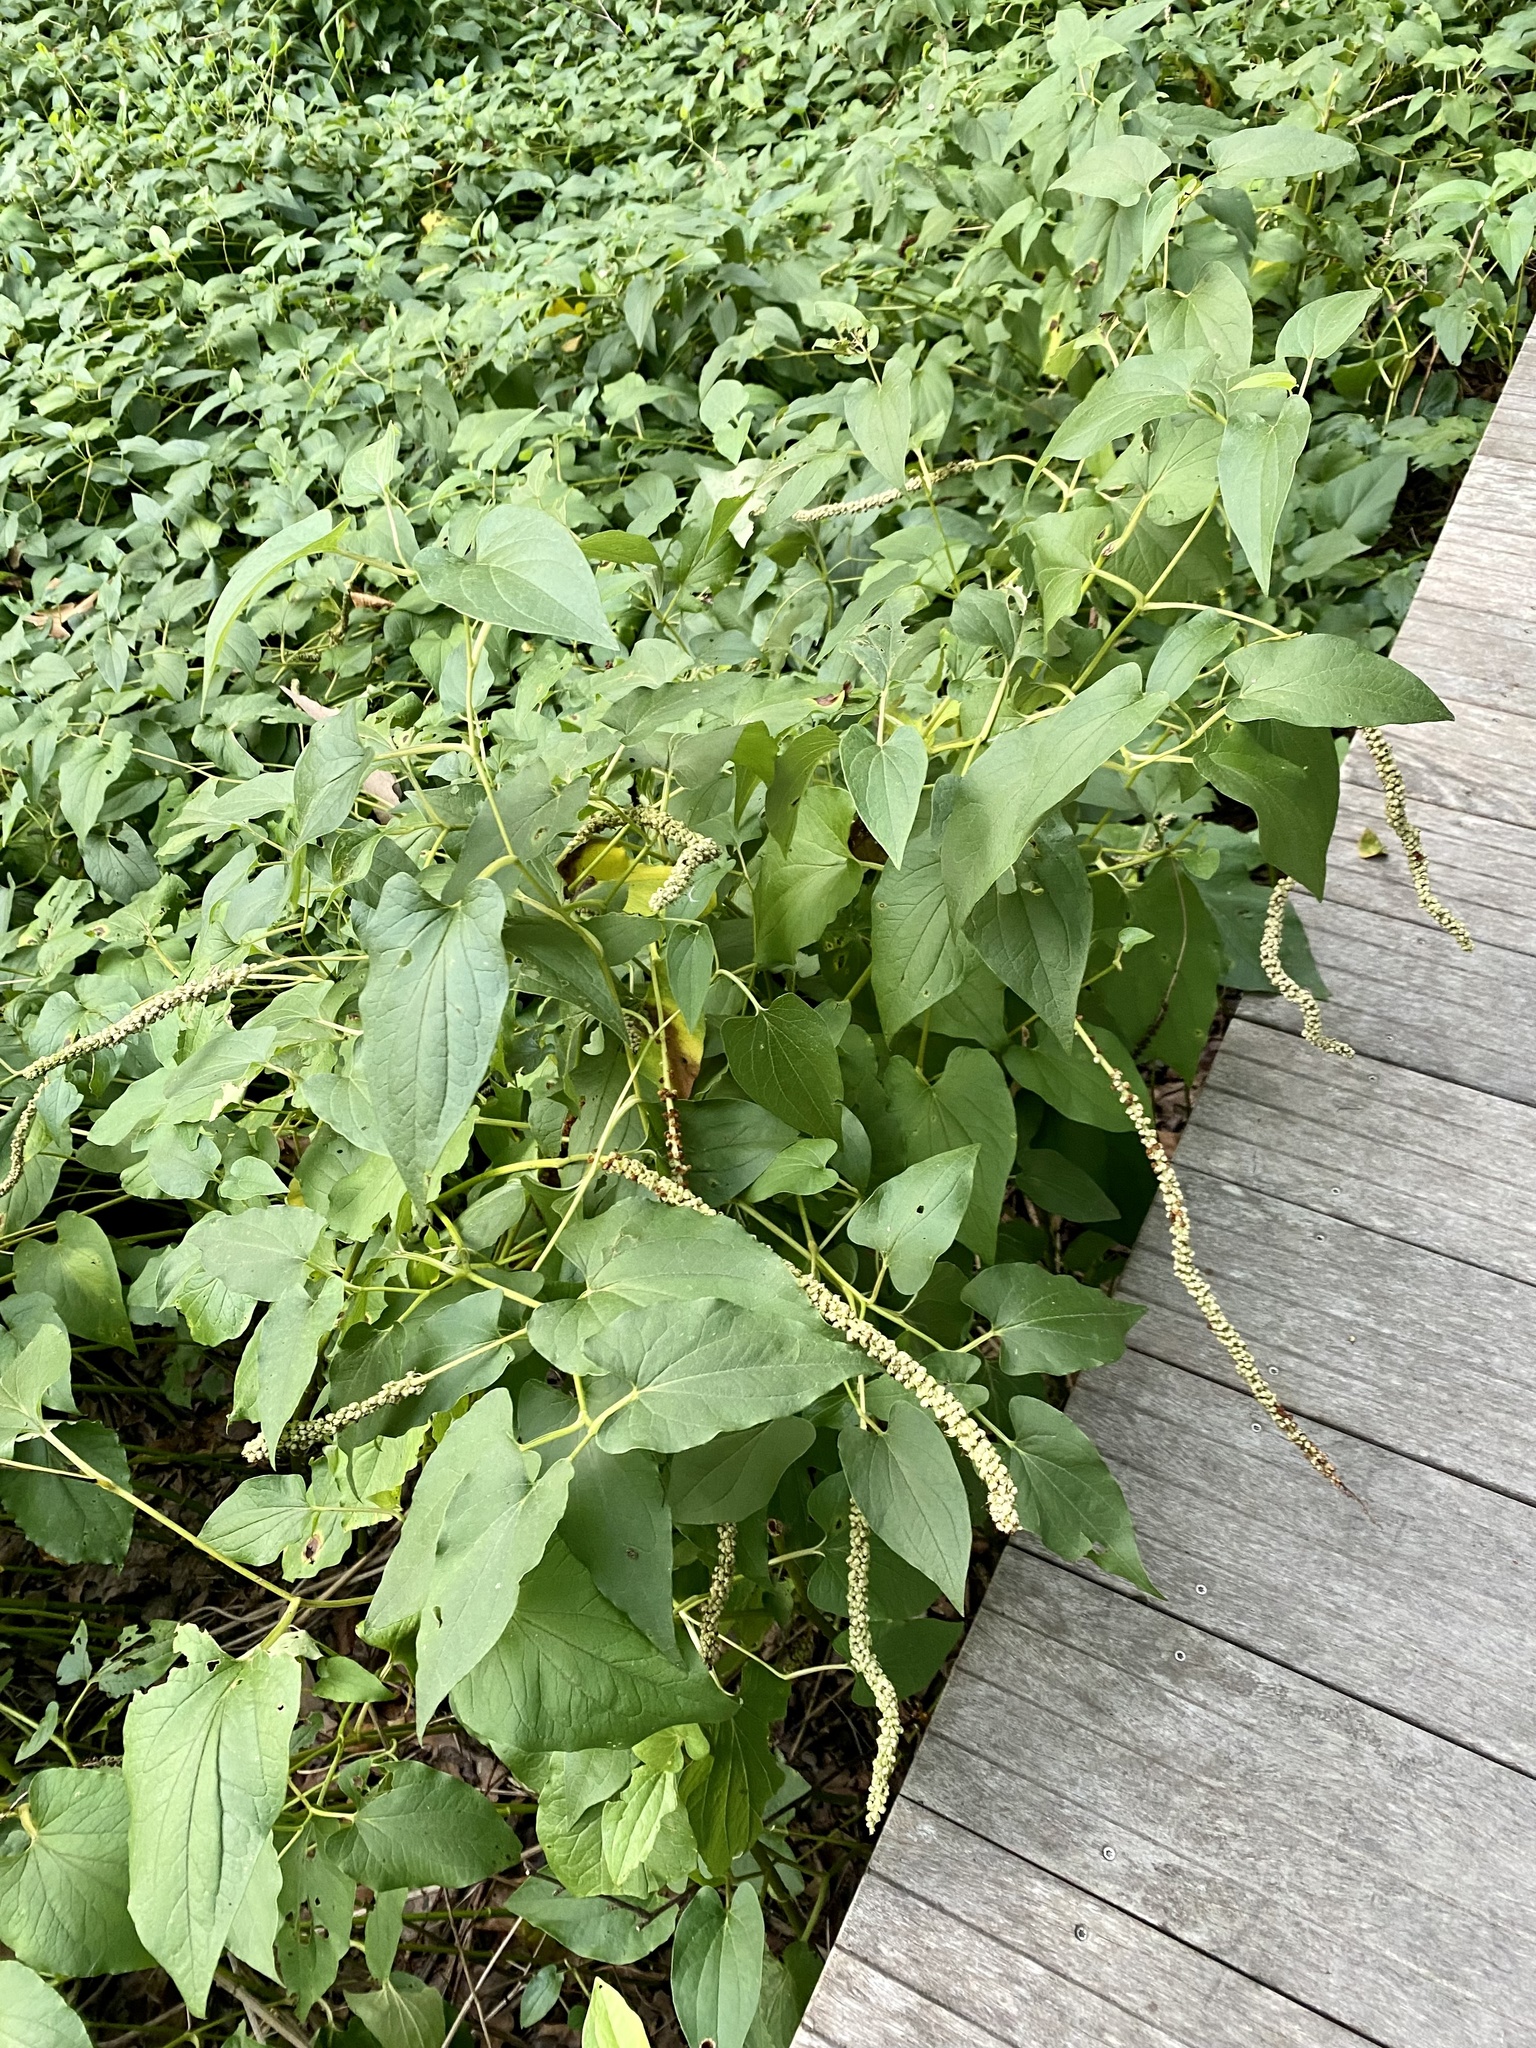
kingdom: Plantae
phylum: Tracheophyta
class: Magnoliopsida
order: Piperales
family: Saururaceae
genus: Saururus
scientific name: Saururus cernuus
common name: Lizard's-tail
